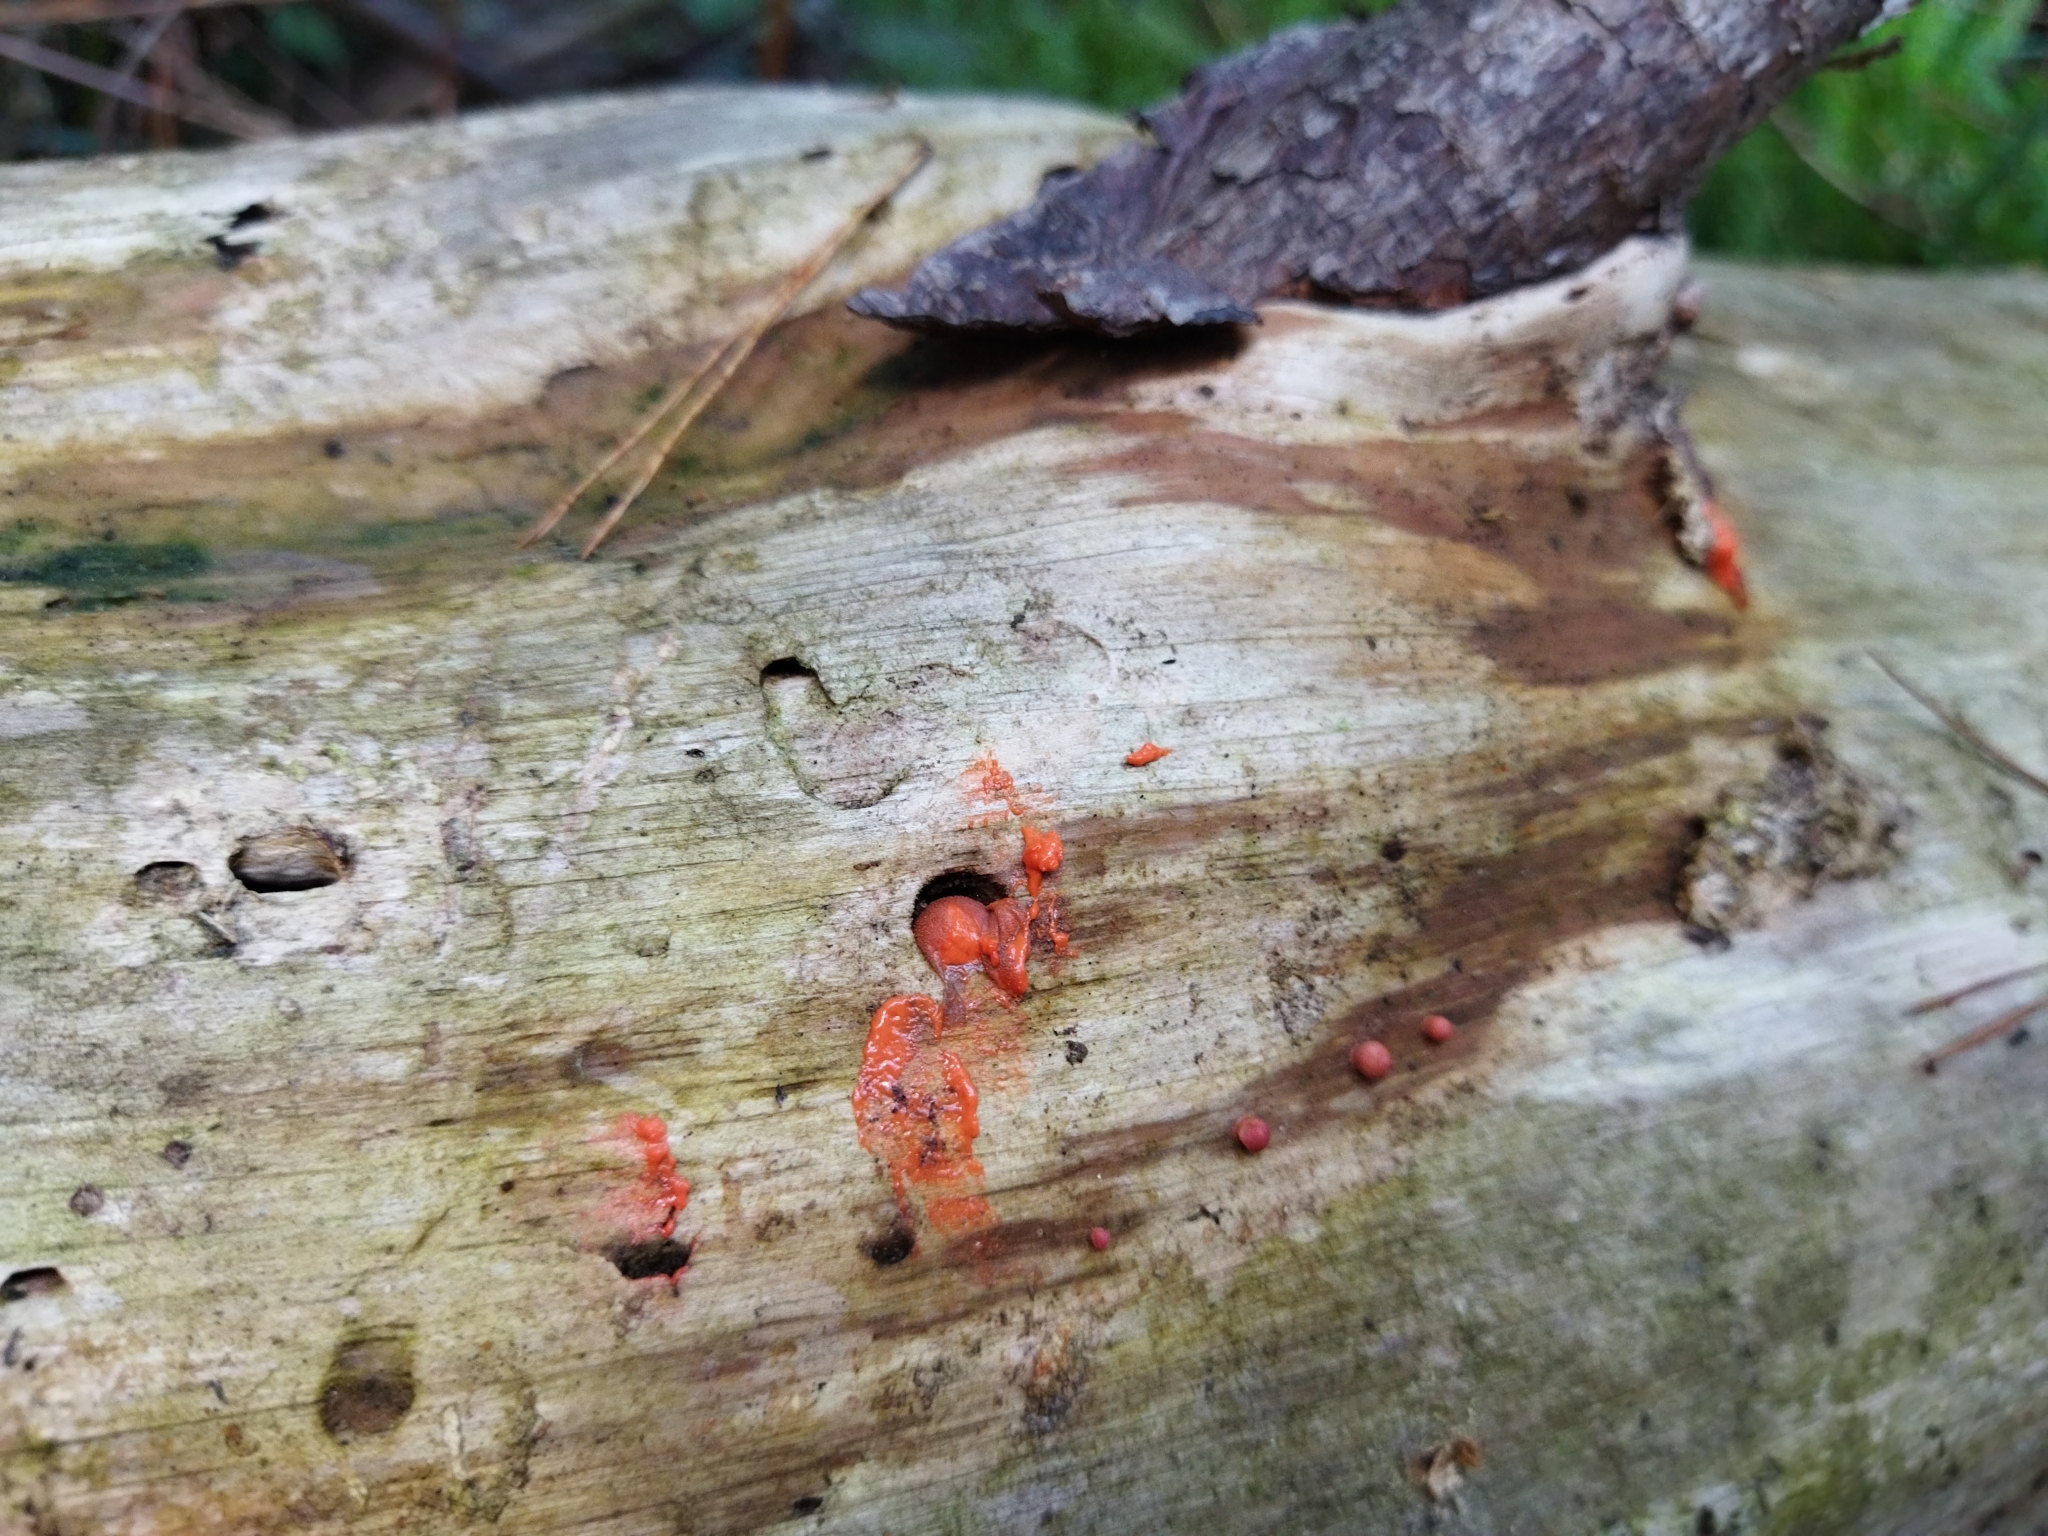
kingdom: Protozoa
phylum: Mycetozoa
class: Myxomycetes
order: Cribrariales
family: Tubiferaceae
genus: Lycogala
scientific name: Lycogala epidendrum
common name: Wolf's milk
